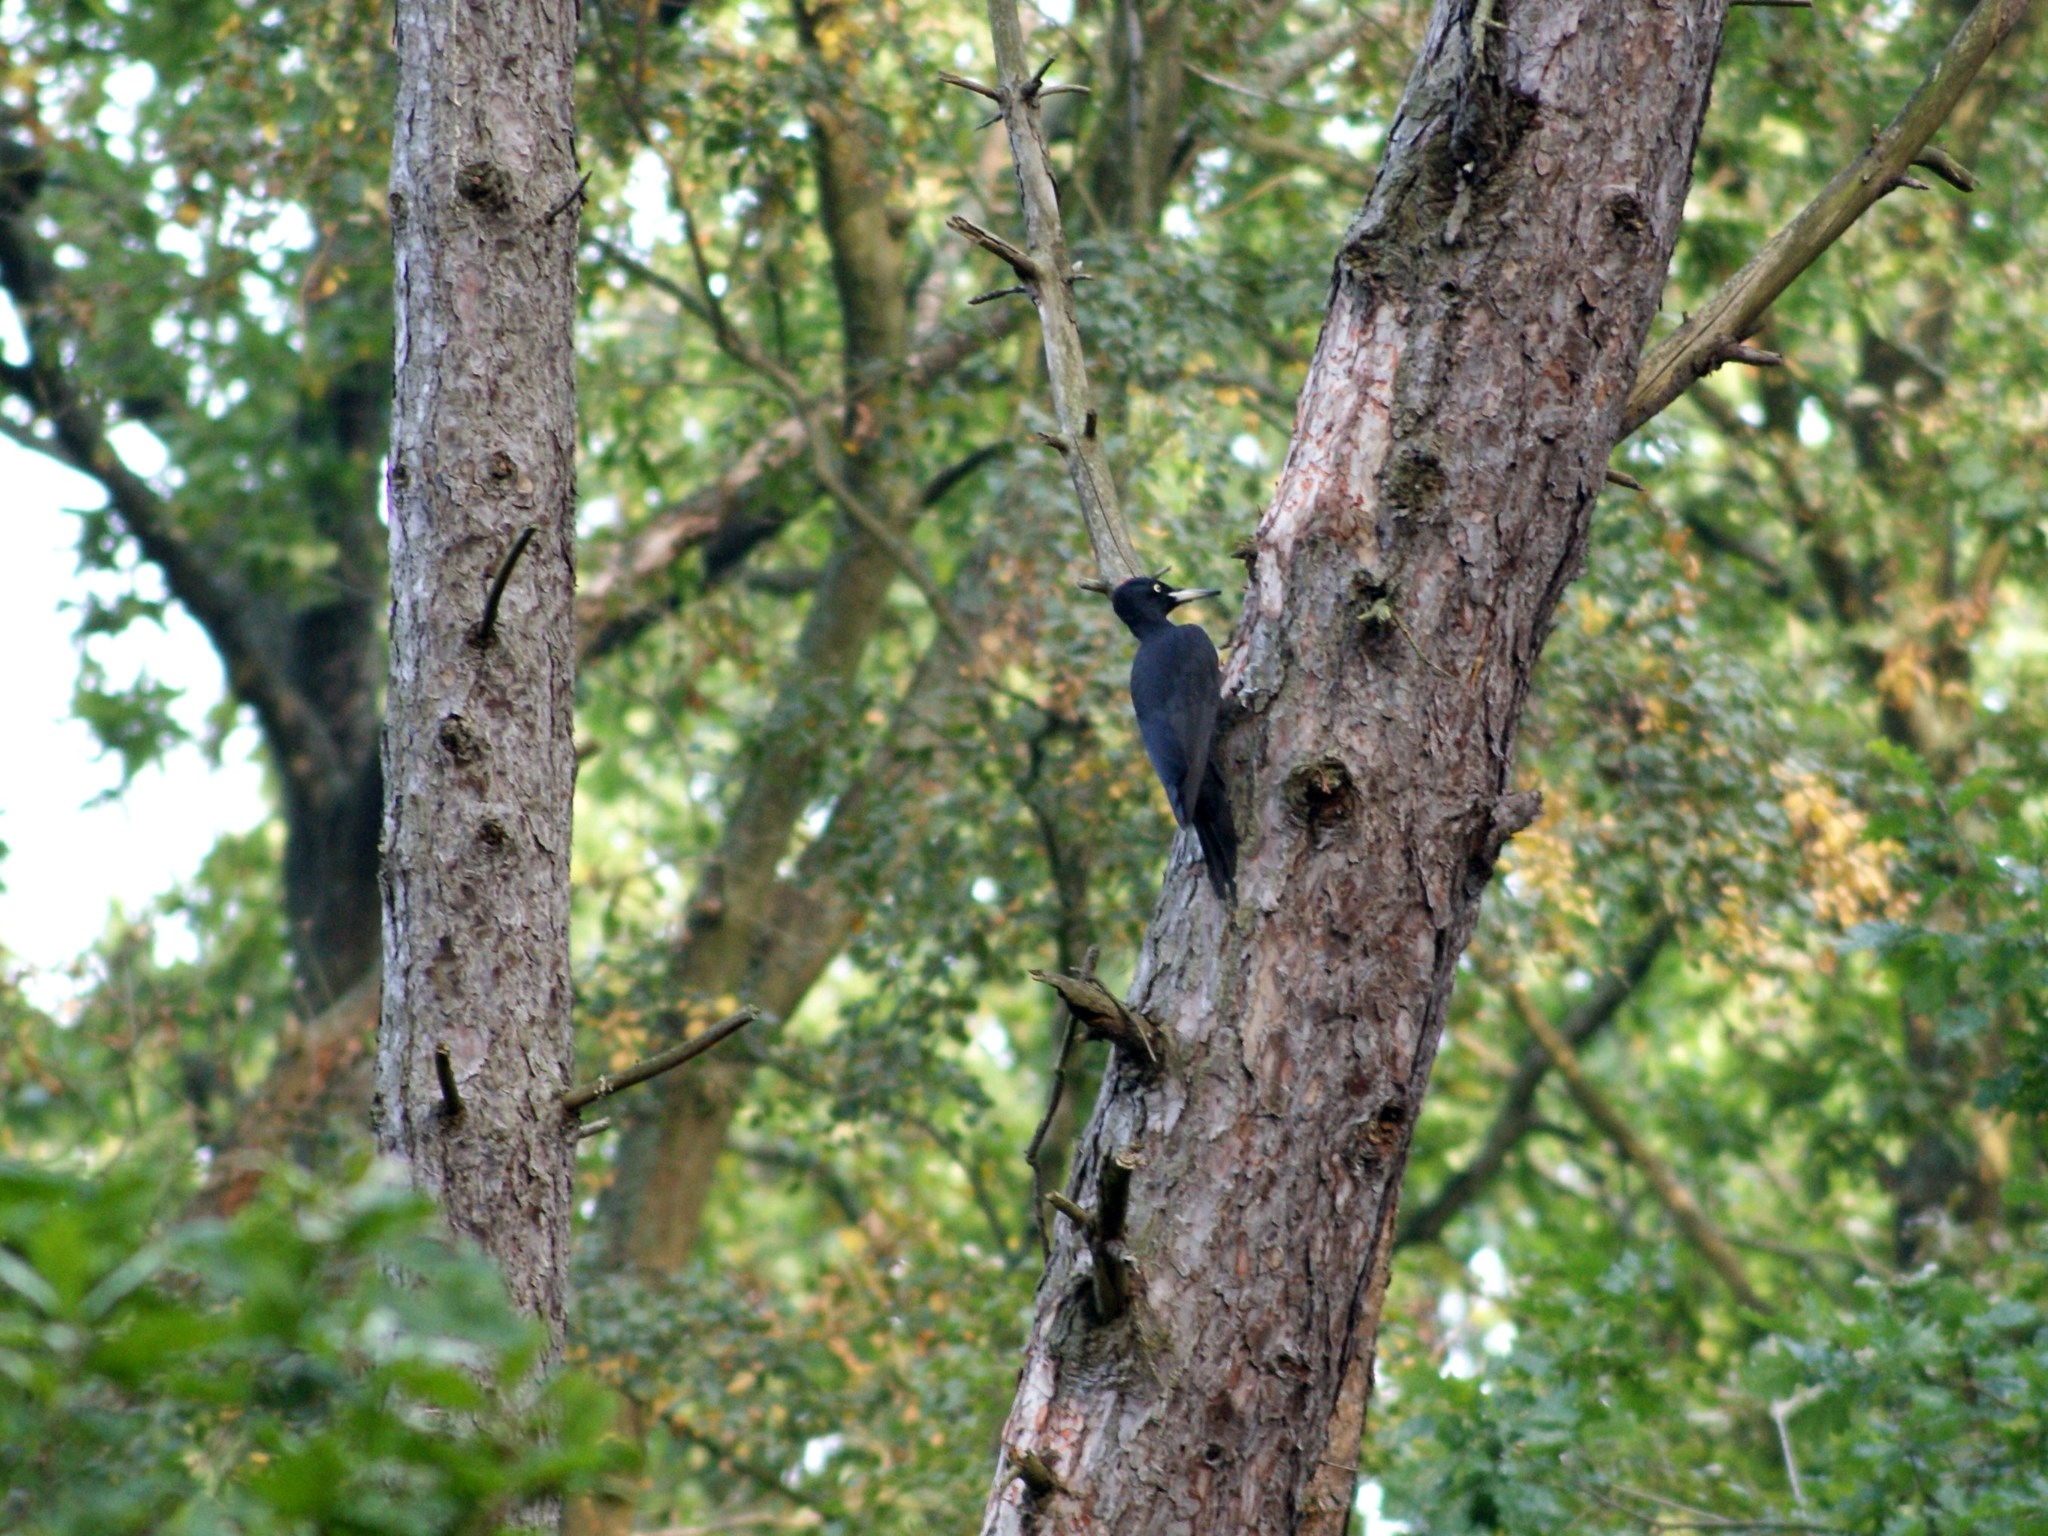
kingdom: Animalia
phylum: Chordata
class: Aves
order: Piciformes
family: Picidae
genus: Dryocopus
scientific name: Dryocopus martius
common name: Black woodpecker
